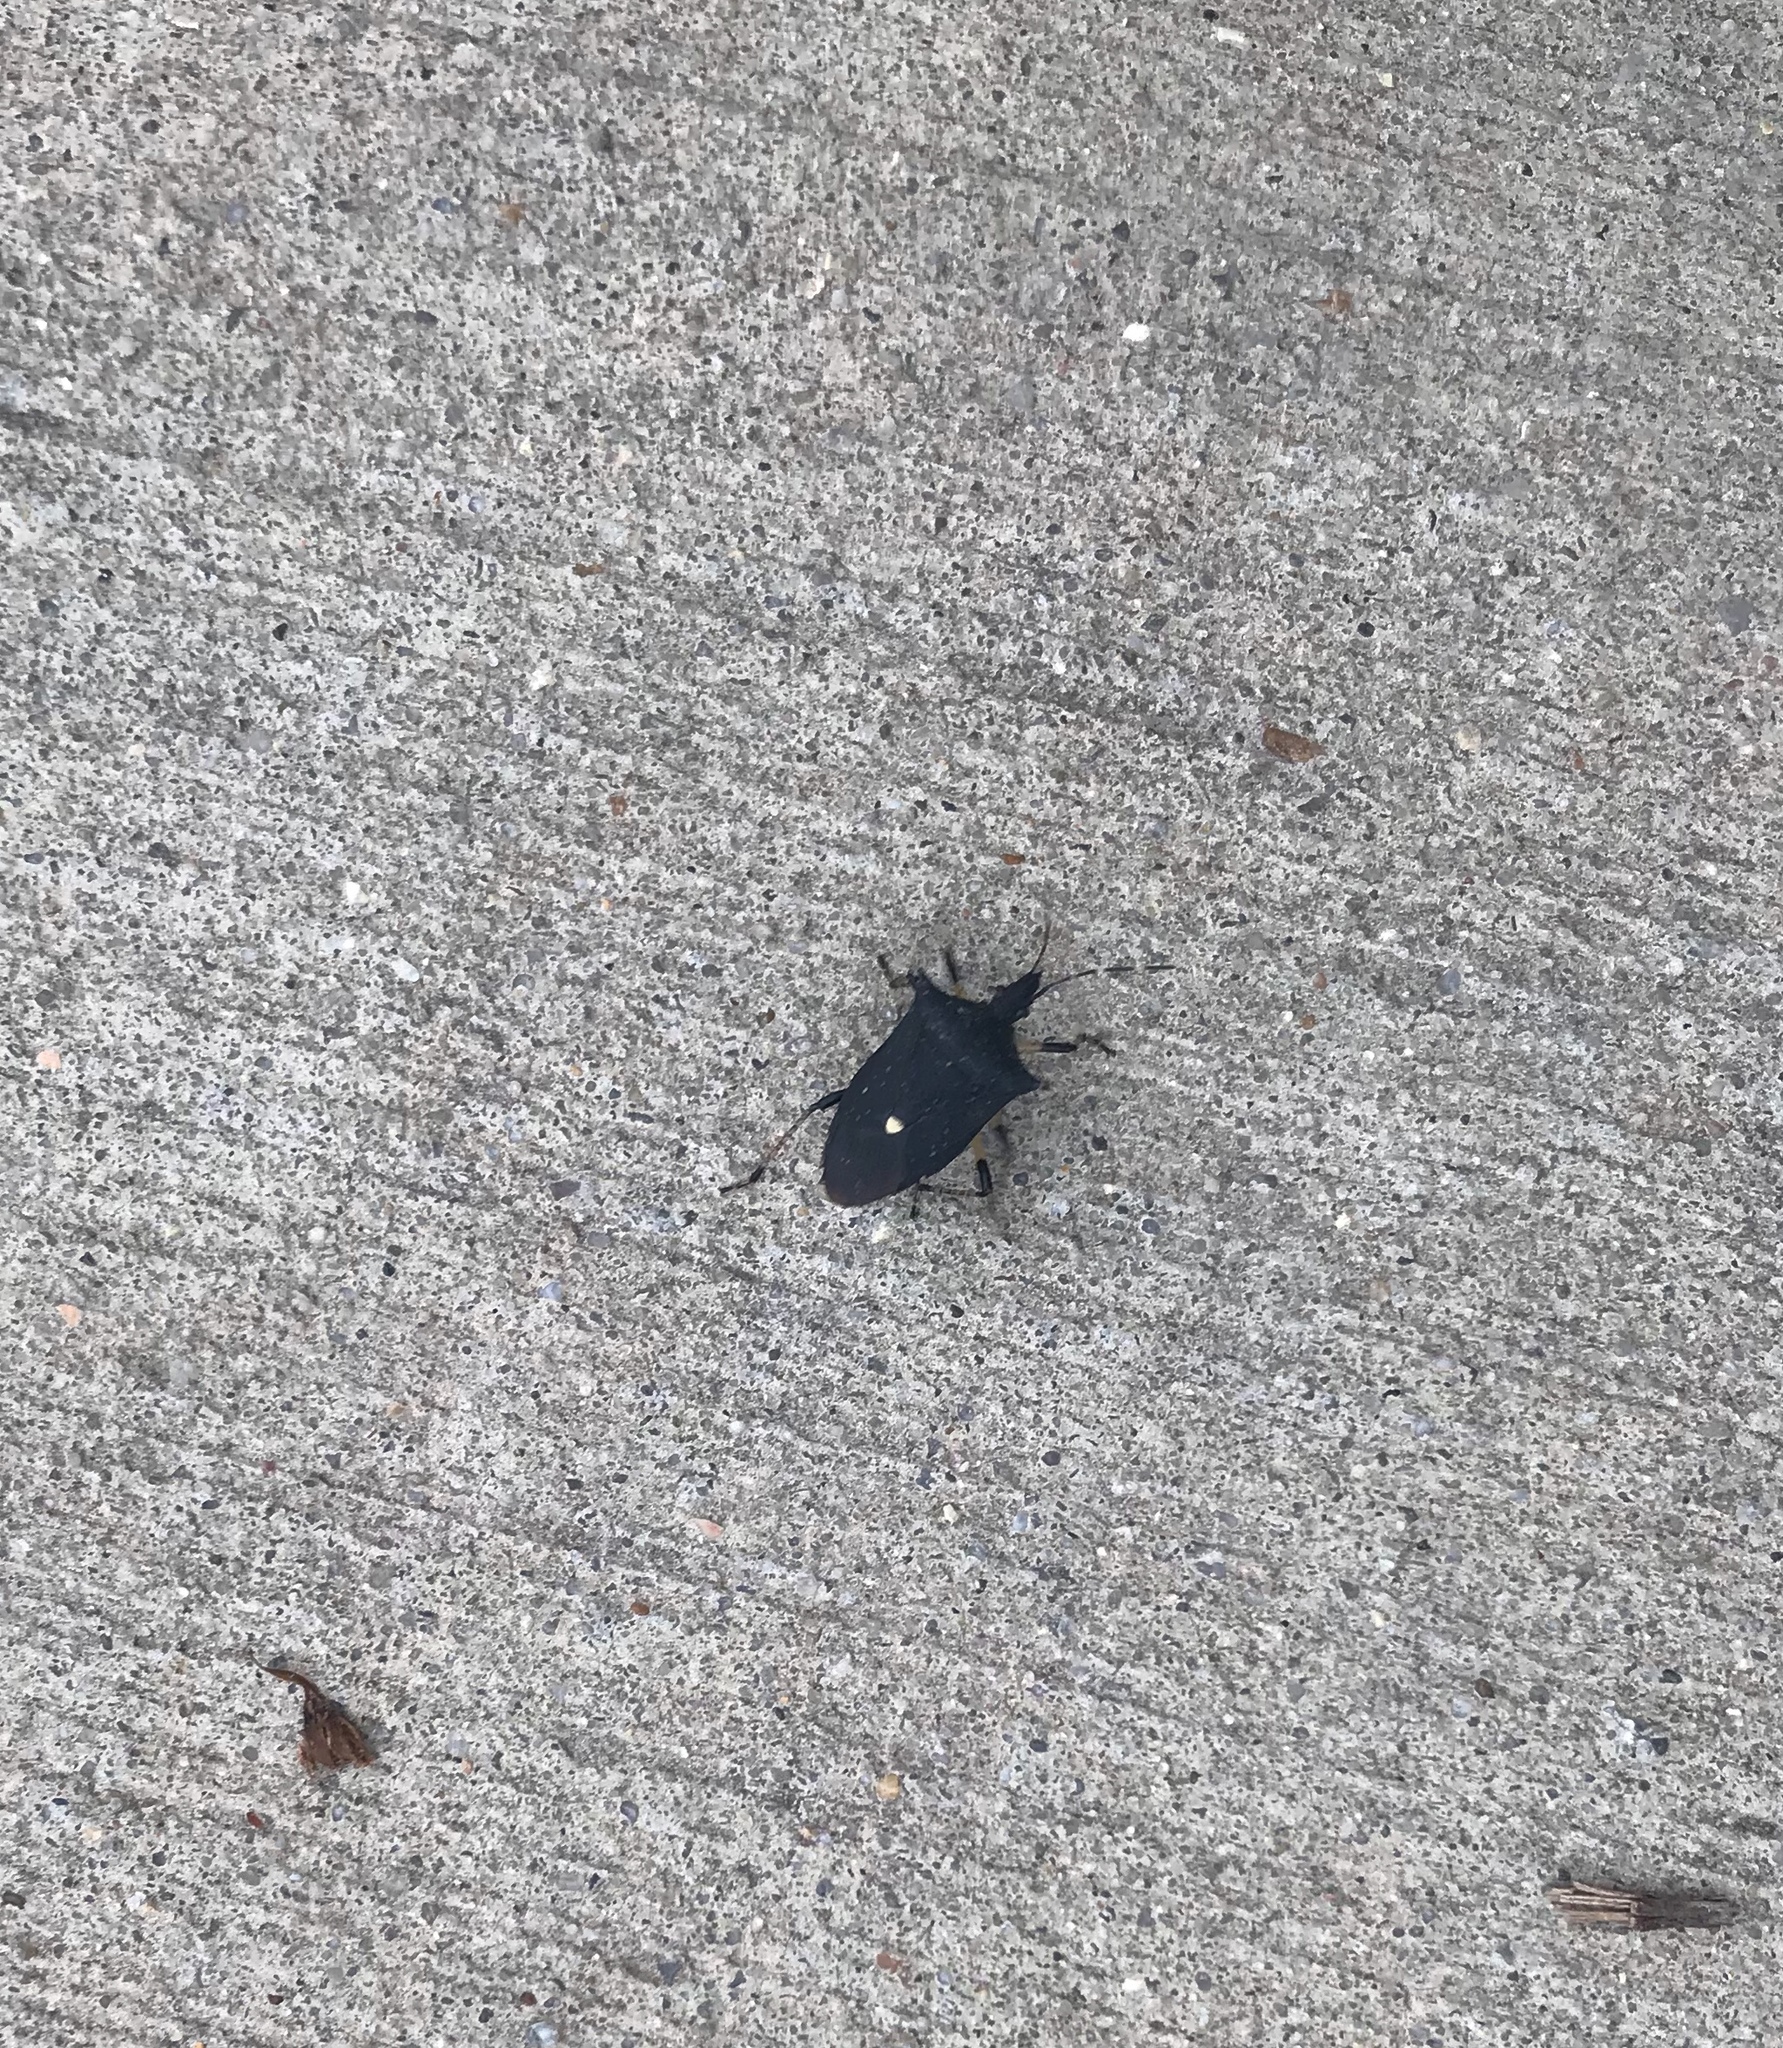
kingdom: Animalia
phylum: Arthropoda
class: Insecta
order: Hemiptera
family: Pentatomidae
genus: Proxys
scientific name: Proxys punctulatus
